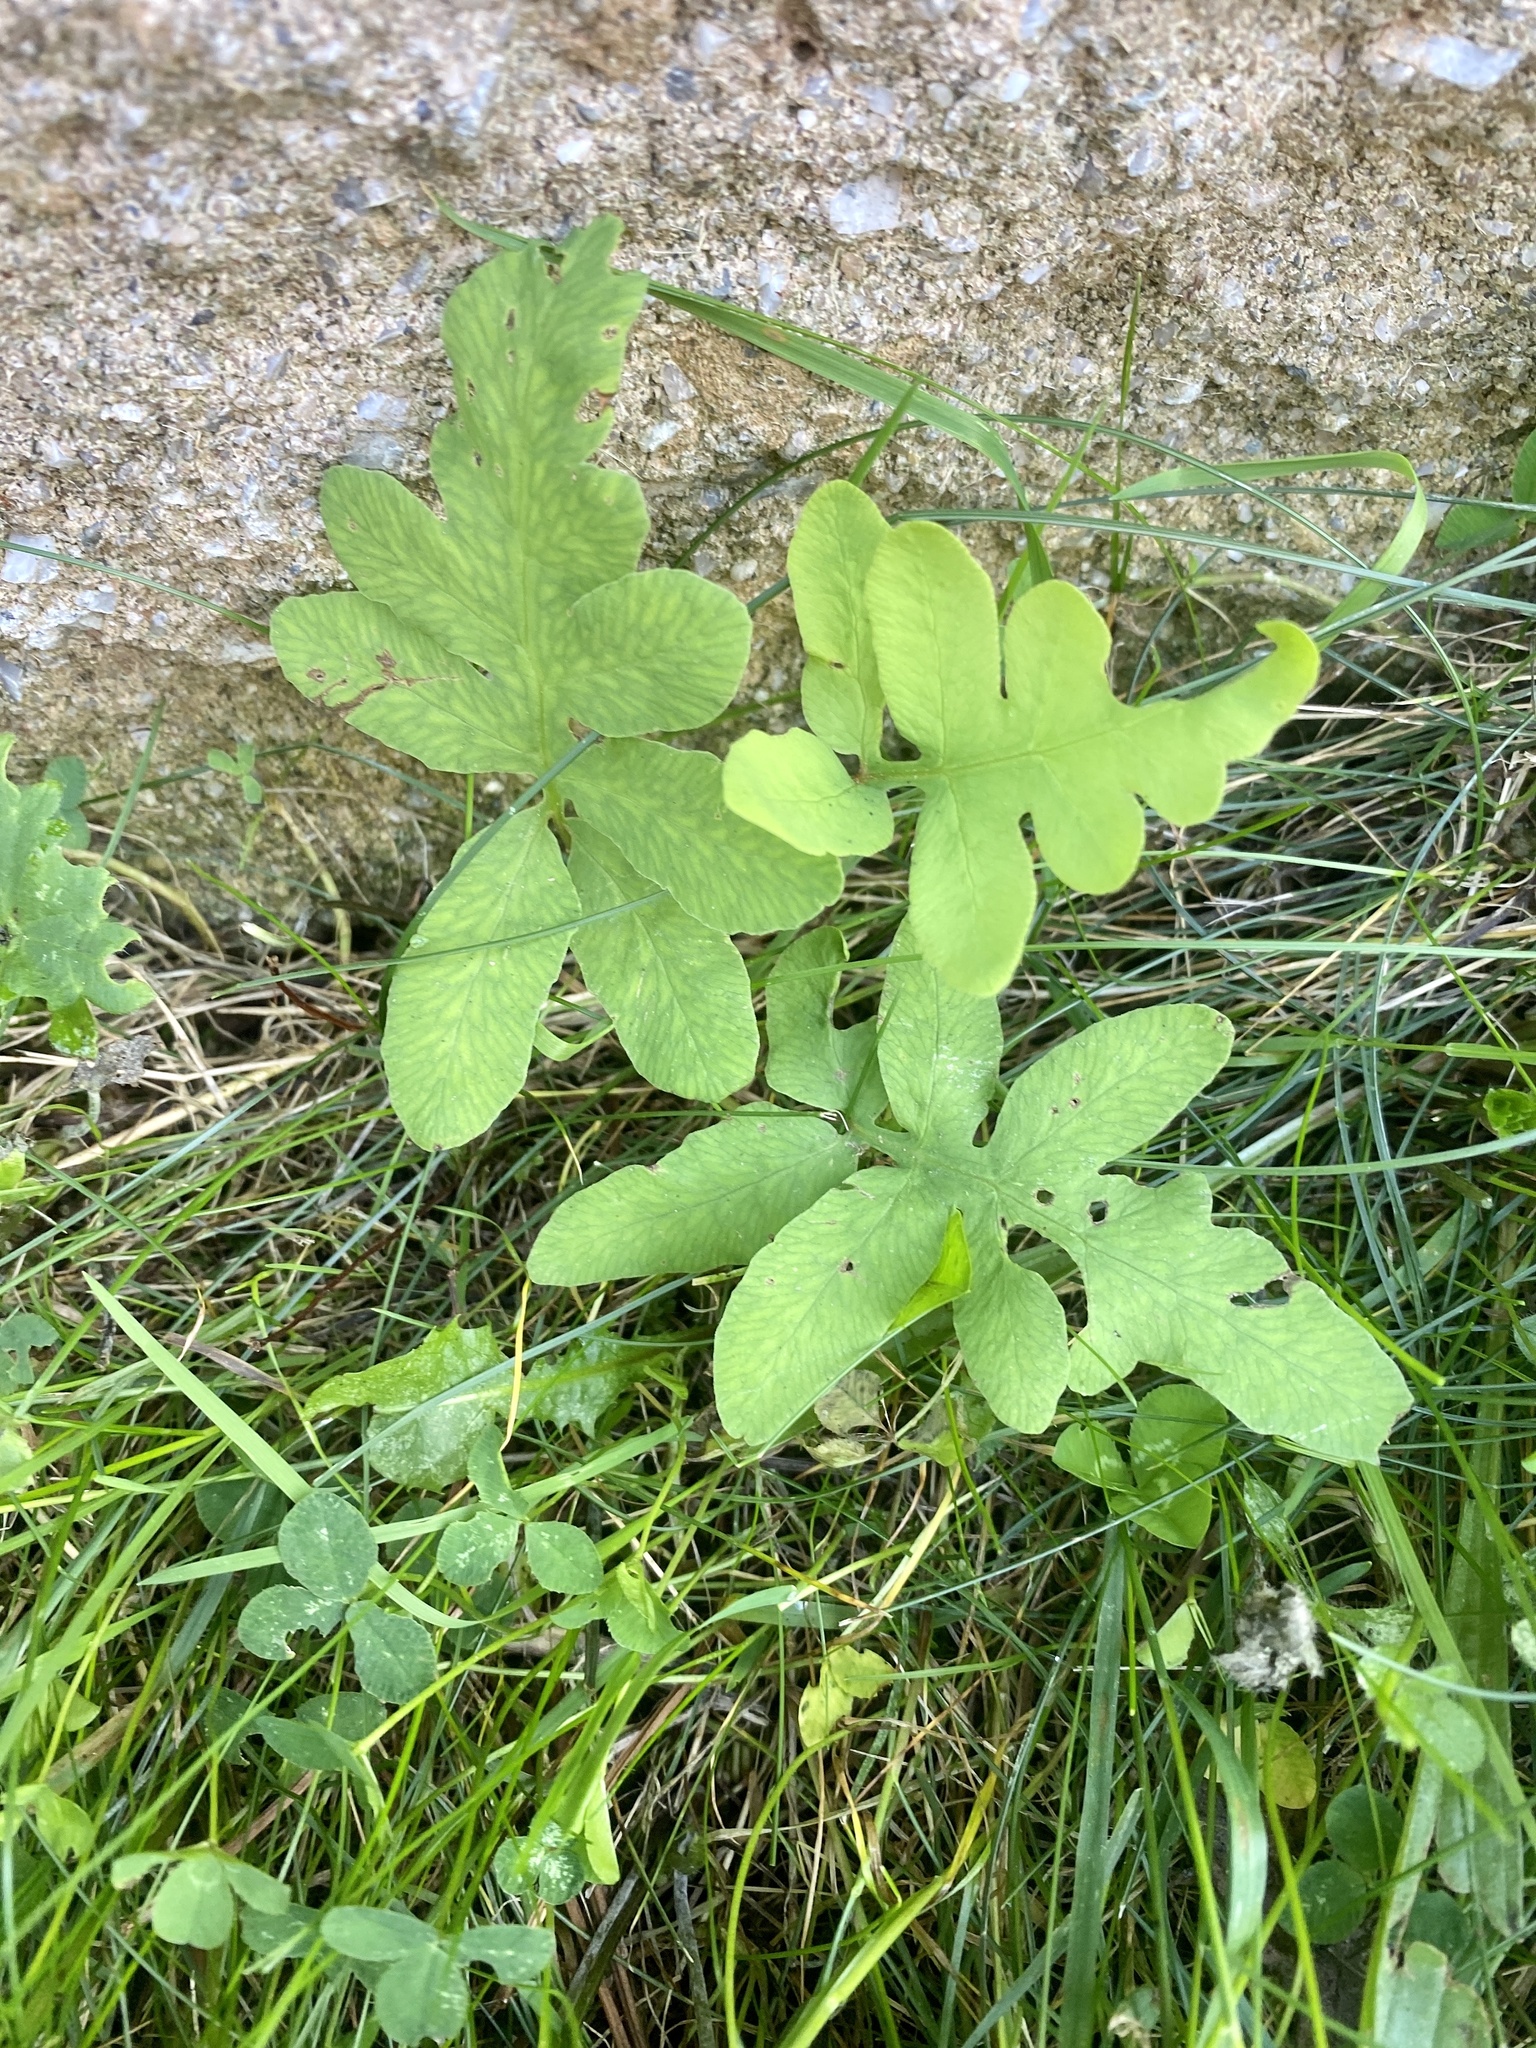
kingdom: Plantae
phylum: Tracheophyta
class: Polypodiopsida
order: Polypodiales
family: Onocleaceae
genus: Onoclea
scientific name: Onoclea sensibilis
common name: Sensitive fern
